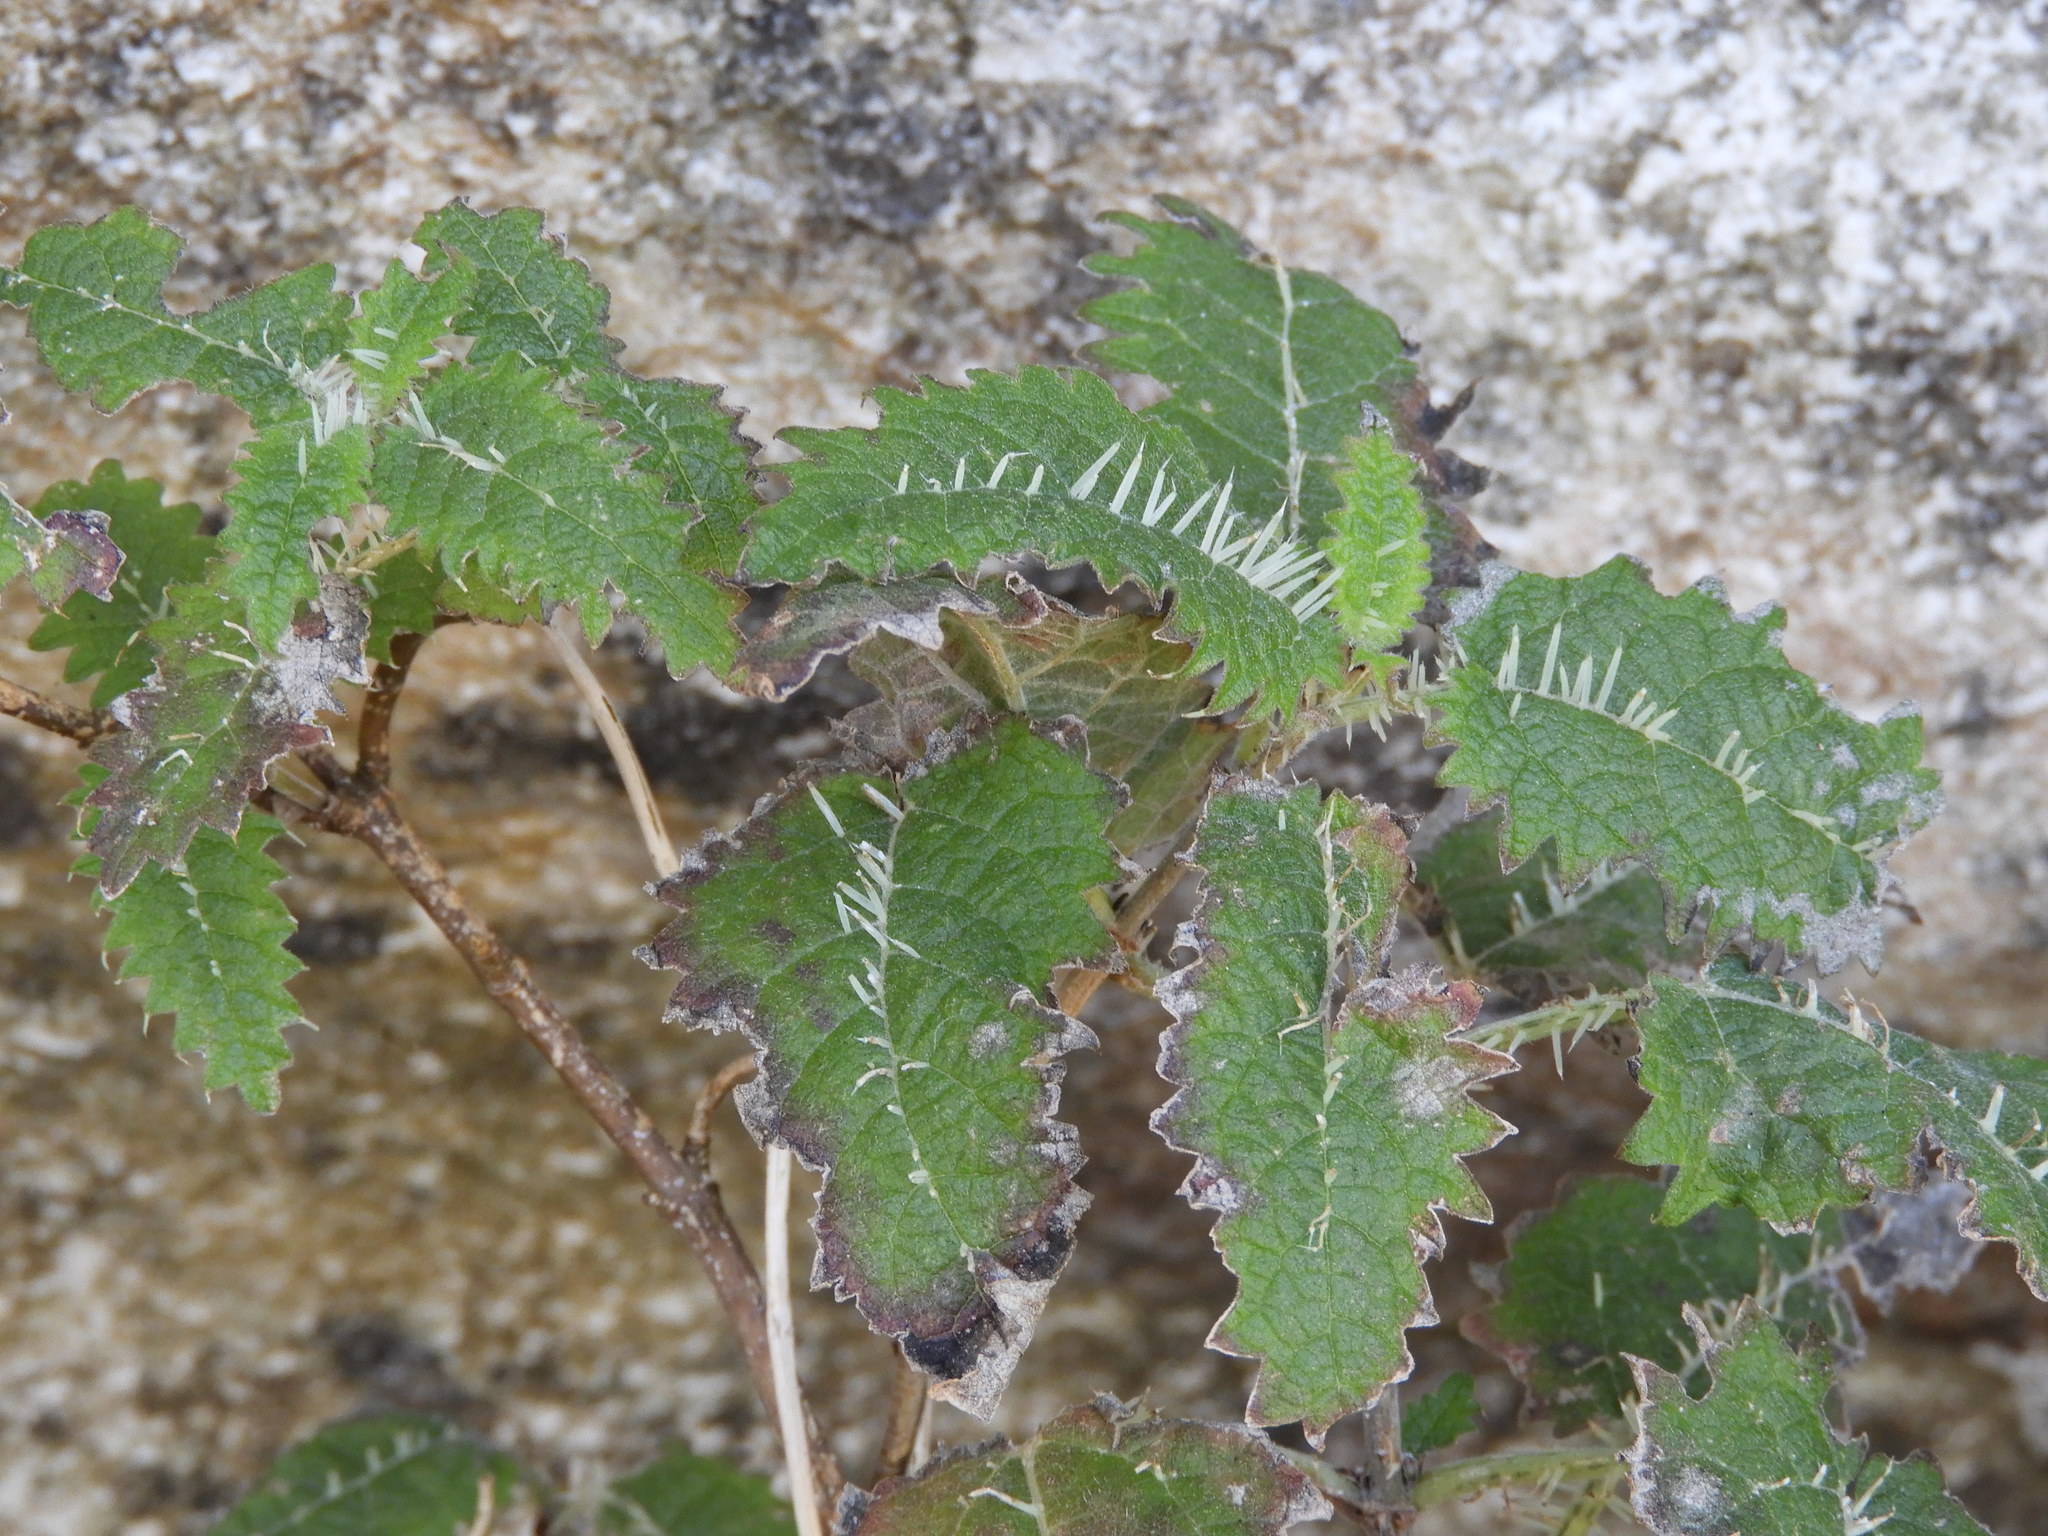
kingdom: Plantae
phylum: Tracheophyta
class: Magnoliopsida
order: Rosales
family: Urticaceae
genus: Urtica
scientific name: Urtica ferox
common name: Tree nettle
